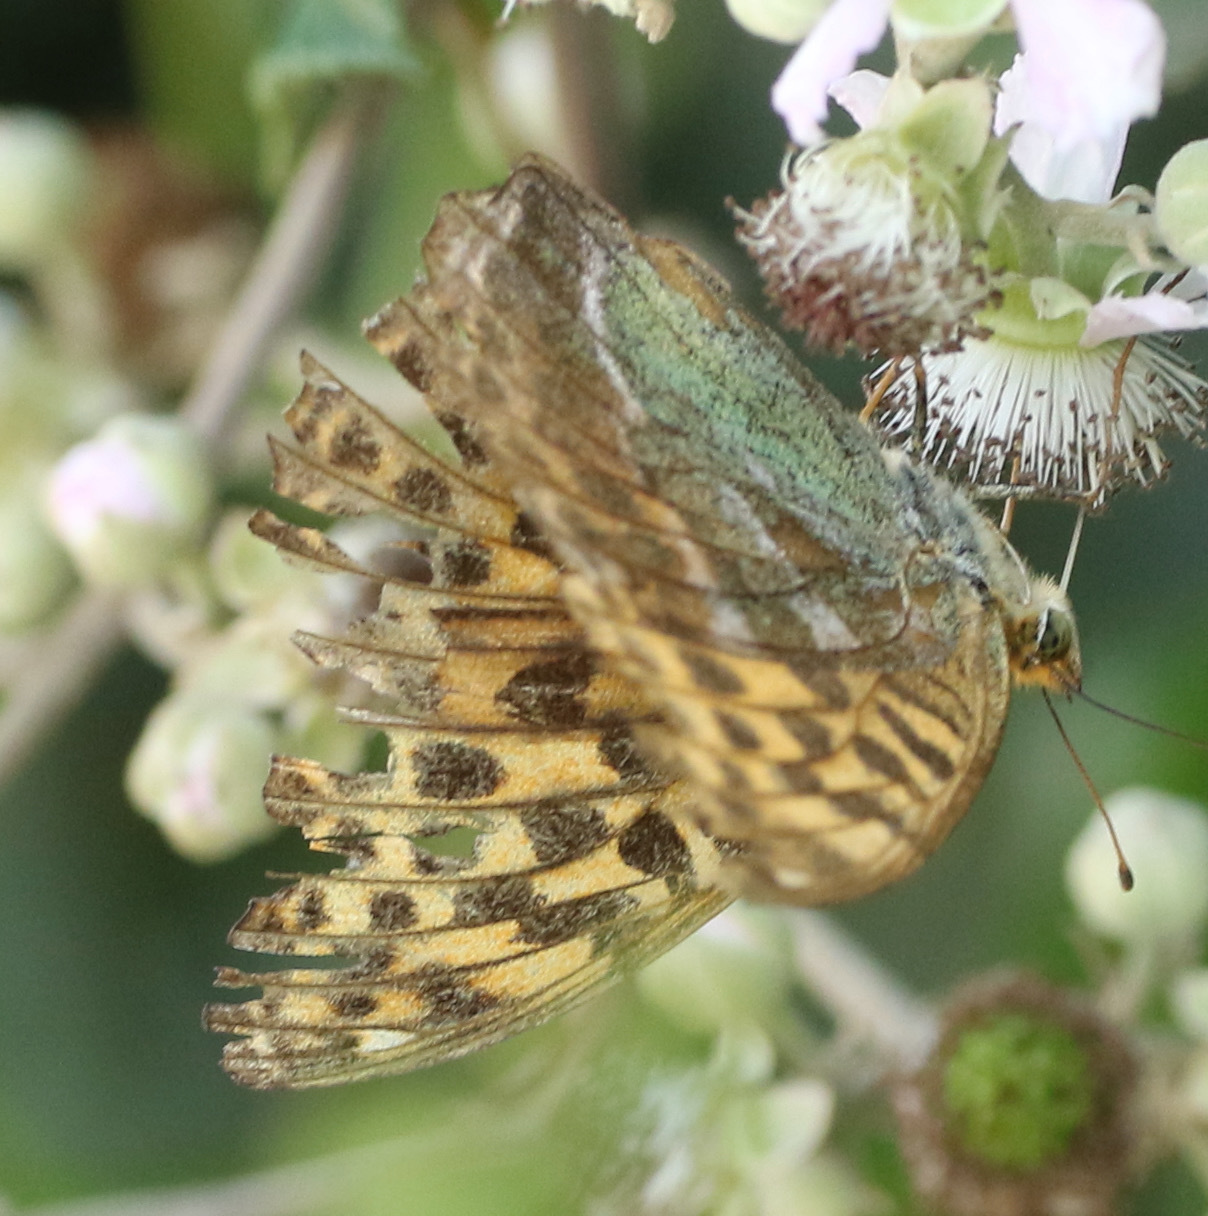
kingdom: Animalia
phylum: Arthropoda
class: Insecta
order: Lepidoptera
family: Nymphalidae
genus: Argynnis
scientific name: Argynnis paphia
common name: Silver-washed fritillary
